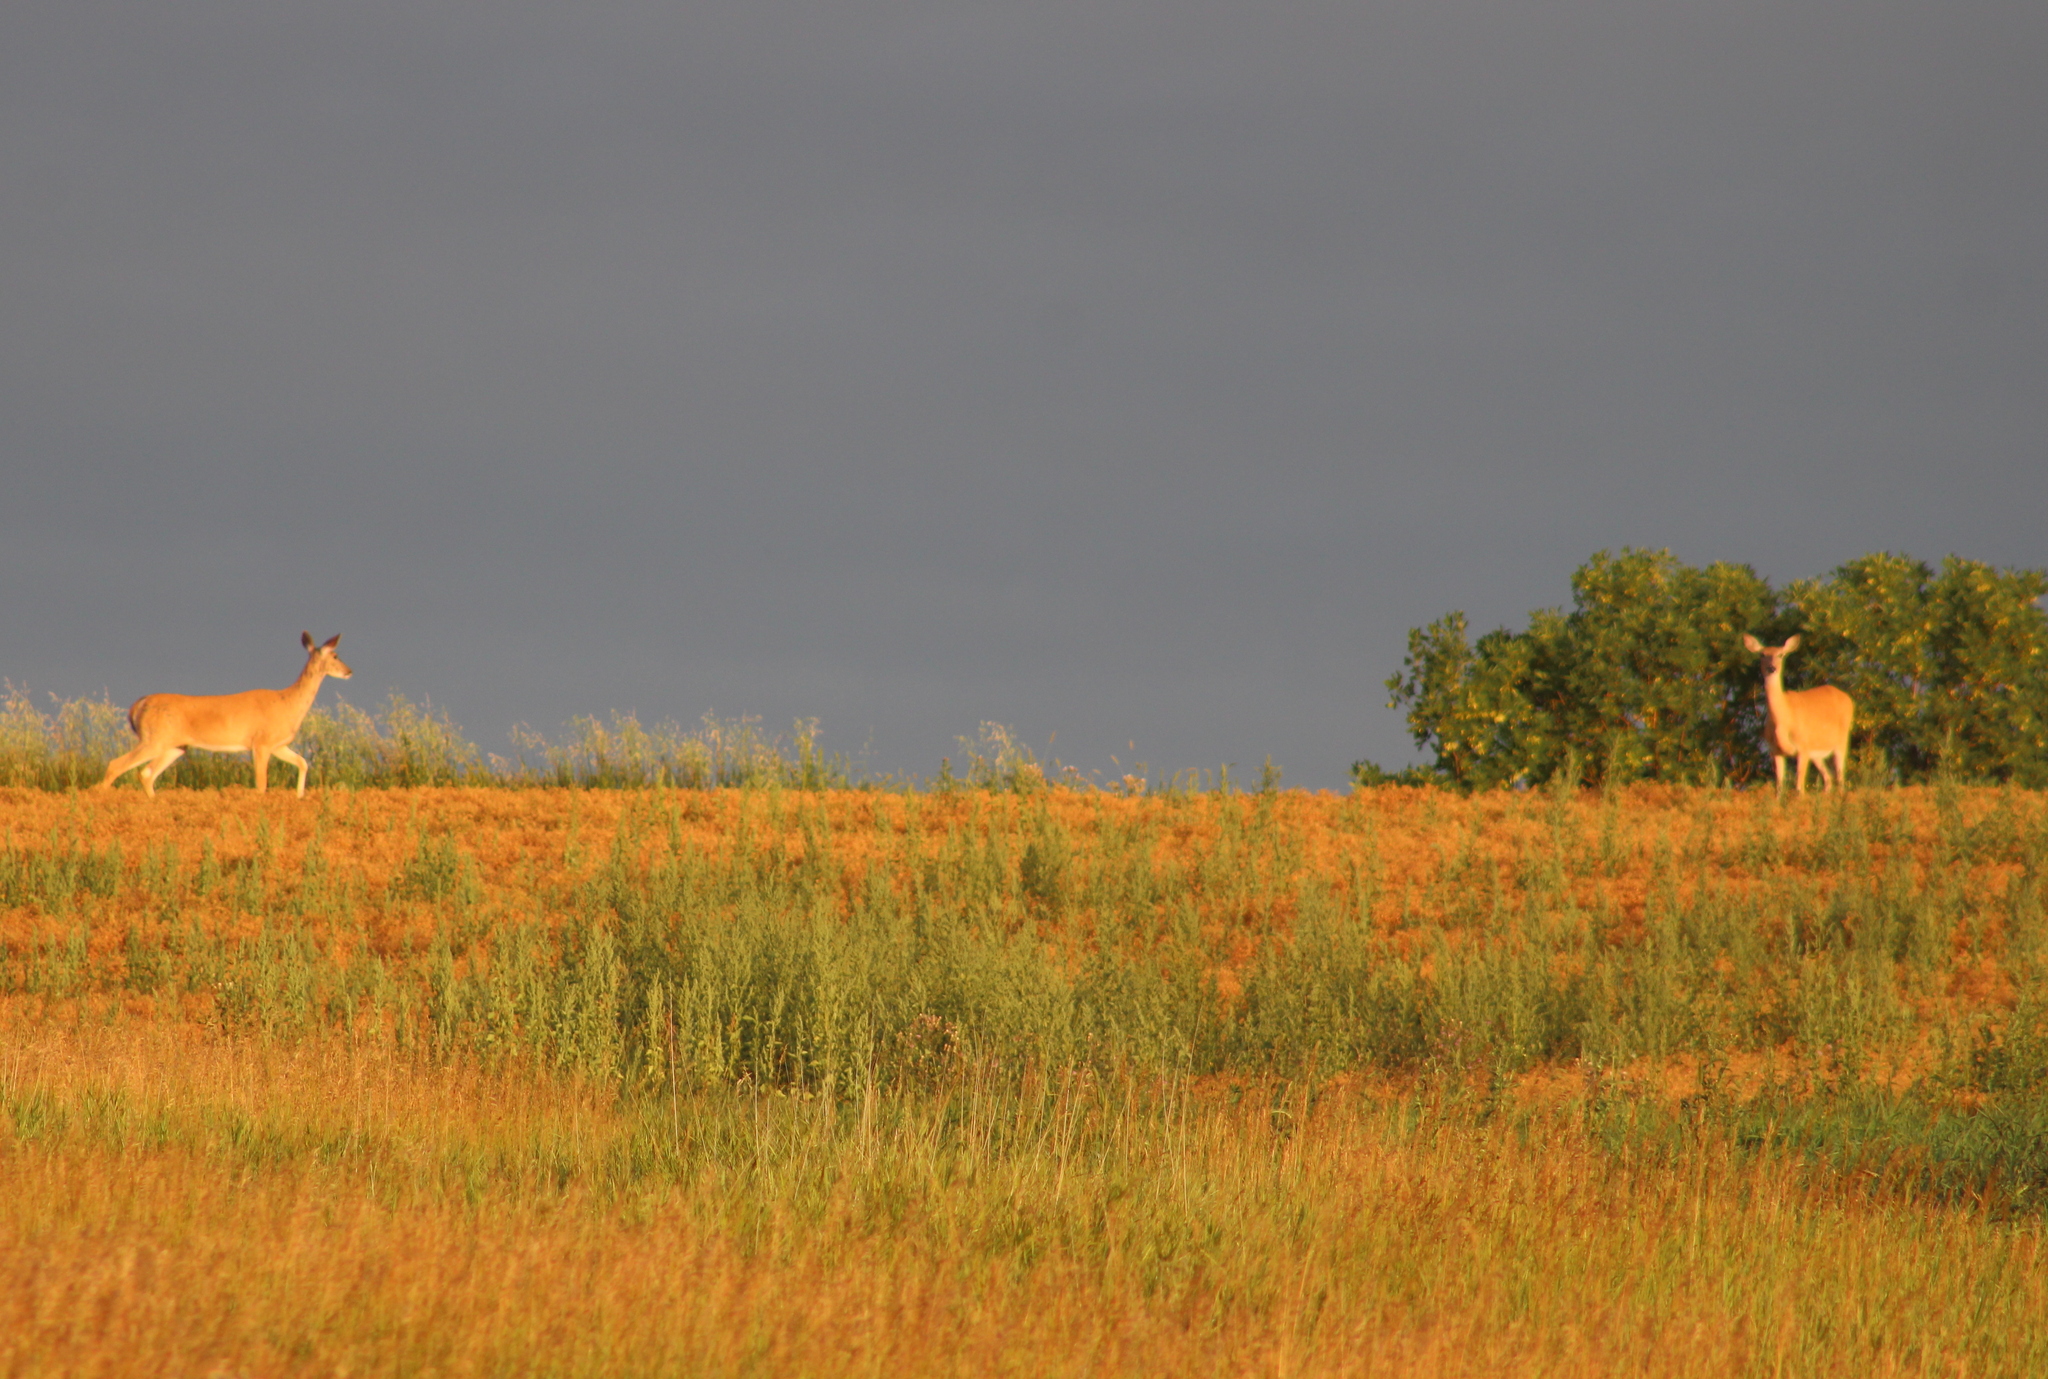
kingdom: Animalia
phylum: Chordata
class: Mammalia
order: Artiodactyla
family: Cervidae
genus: Odocoileus
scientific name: Odocoileus virginianus
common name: White-tailed deer
